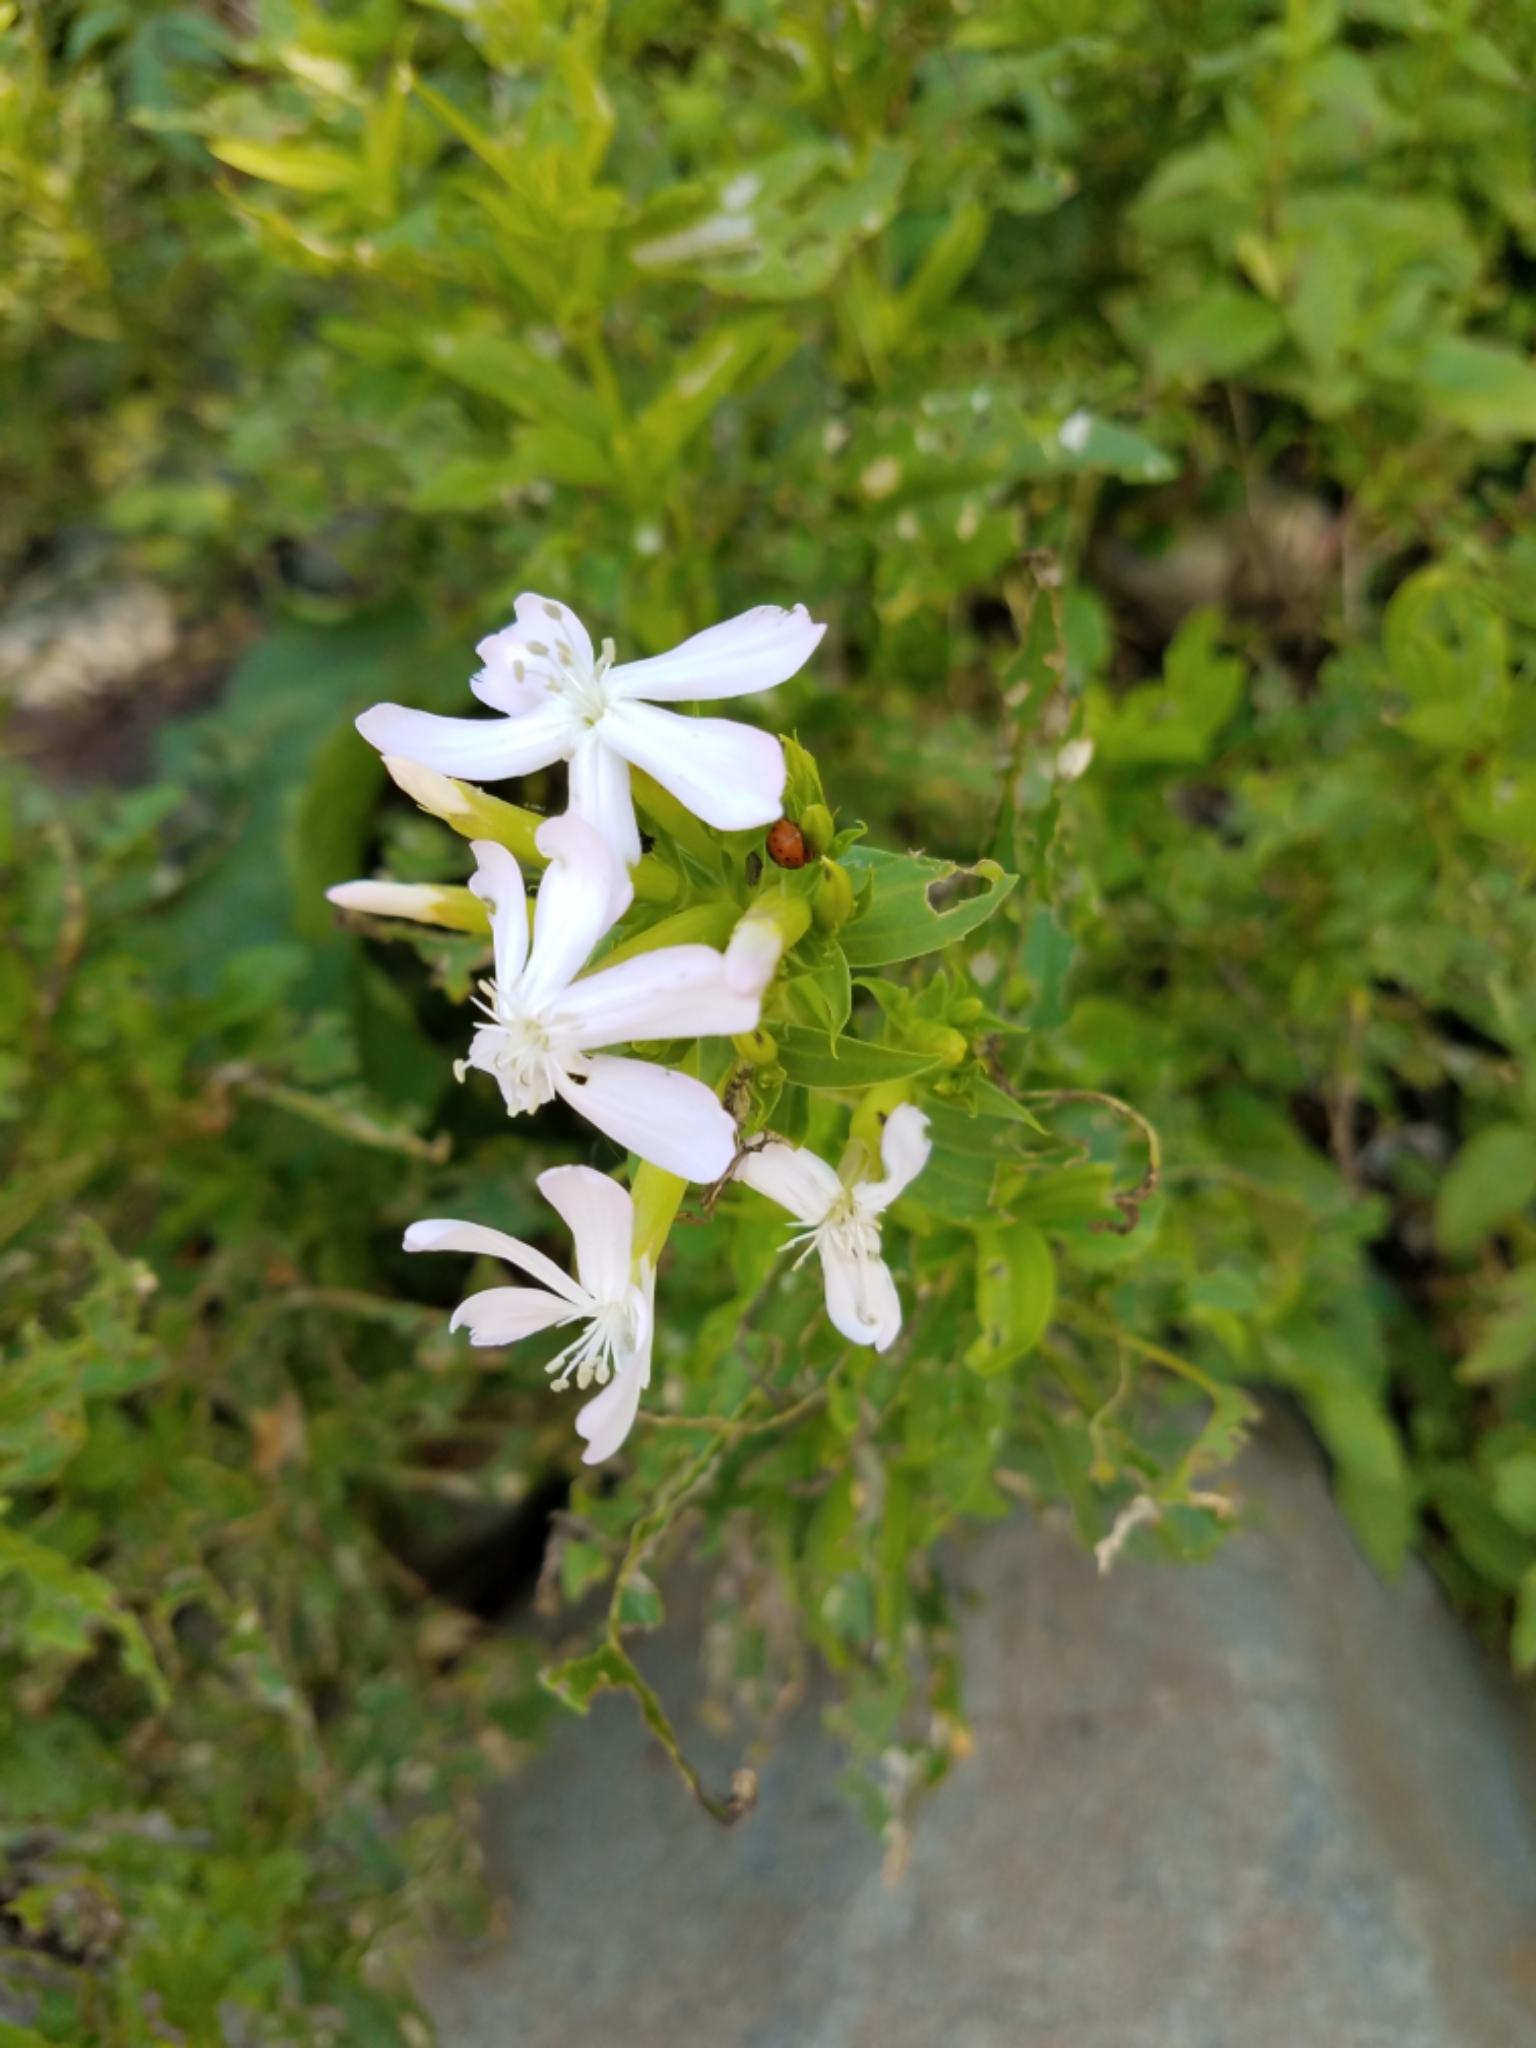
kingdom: Plantae
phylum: Tracheophyta
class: Magnoliopsida
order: Caryophyllales
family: Caryophyllaceae
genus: Saponaria
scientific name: Saponaria officinalis
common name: Soapwort
